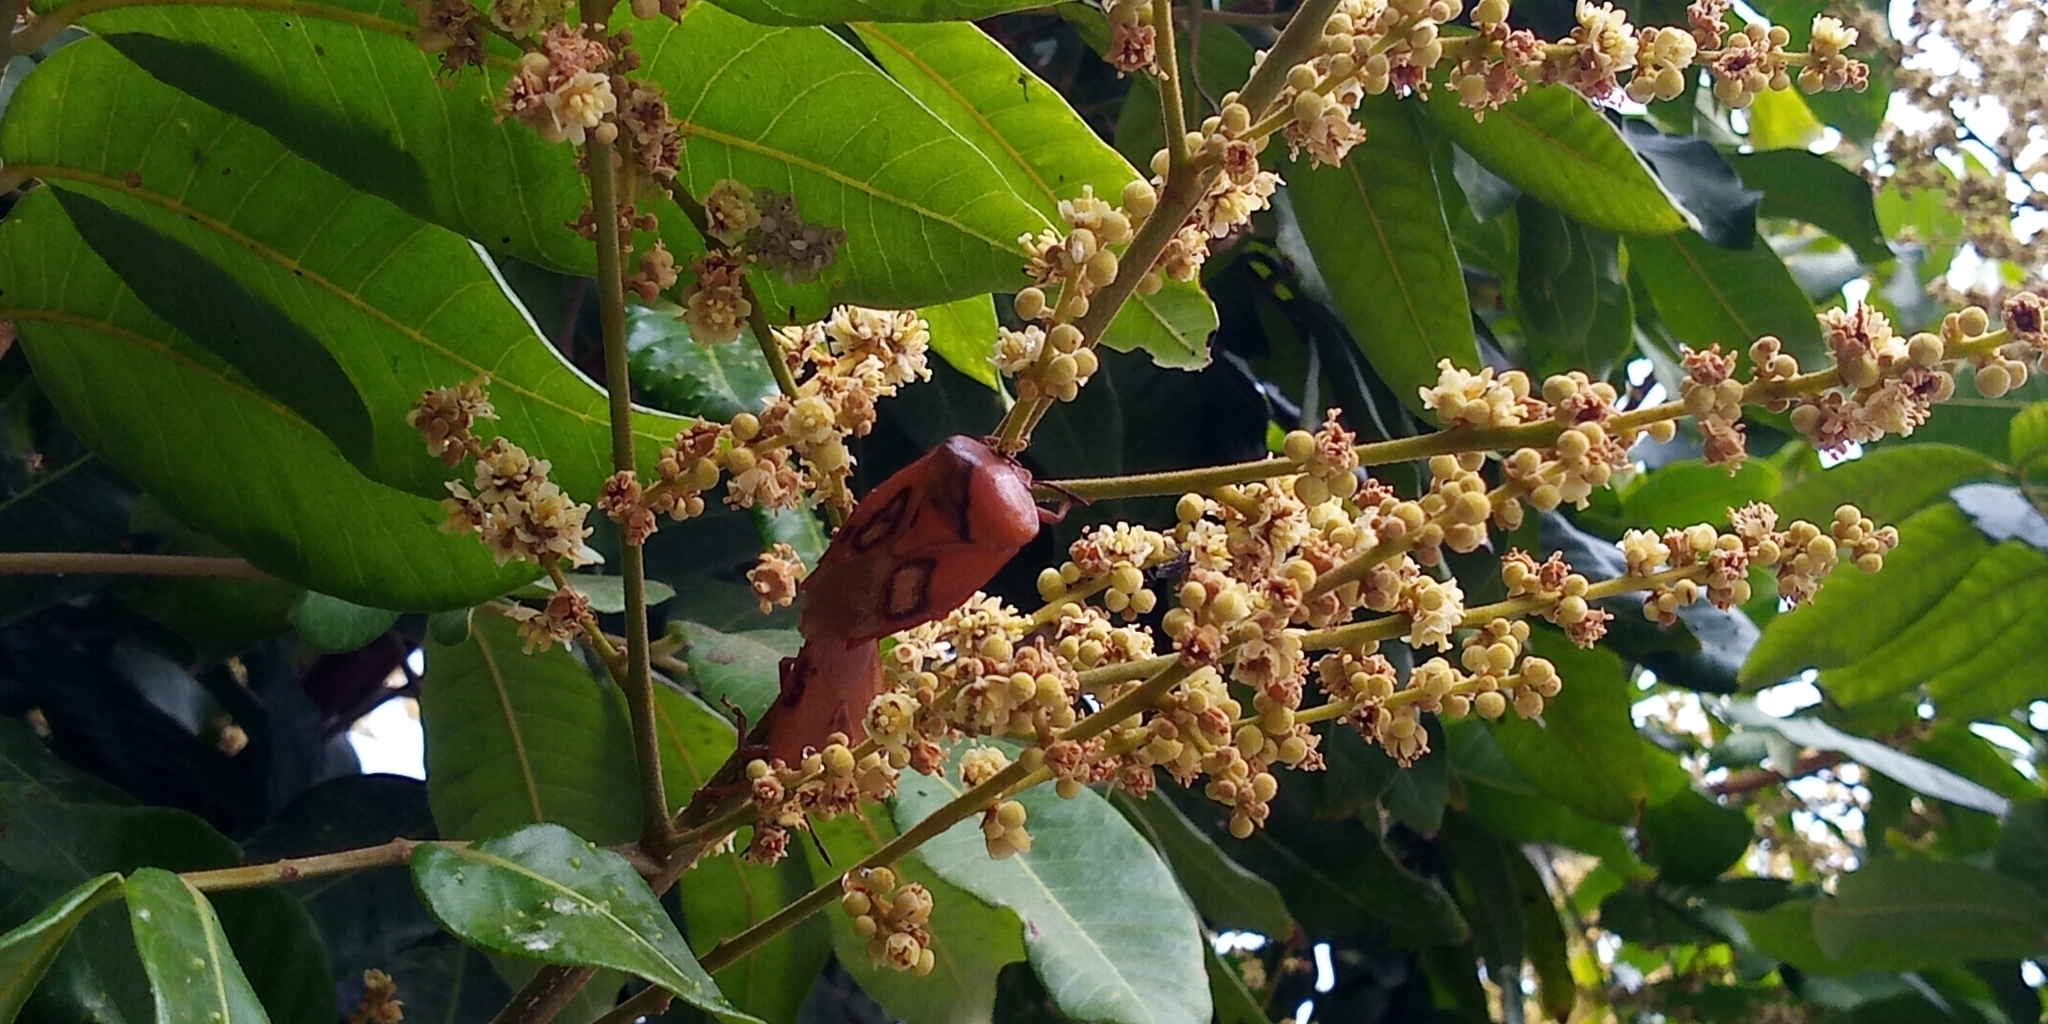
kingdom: Animalia
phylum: Arthropoda
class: Insecta
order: Hemiptera
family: Tessaratomidae
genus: Tessaratoma
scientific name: Tessaratoma papillosa
